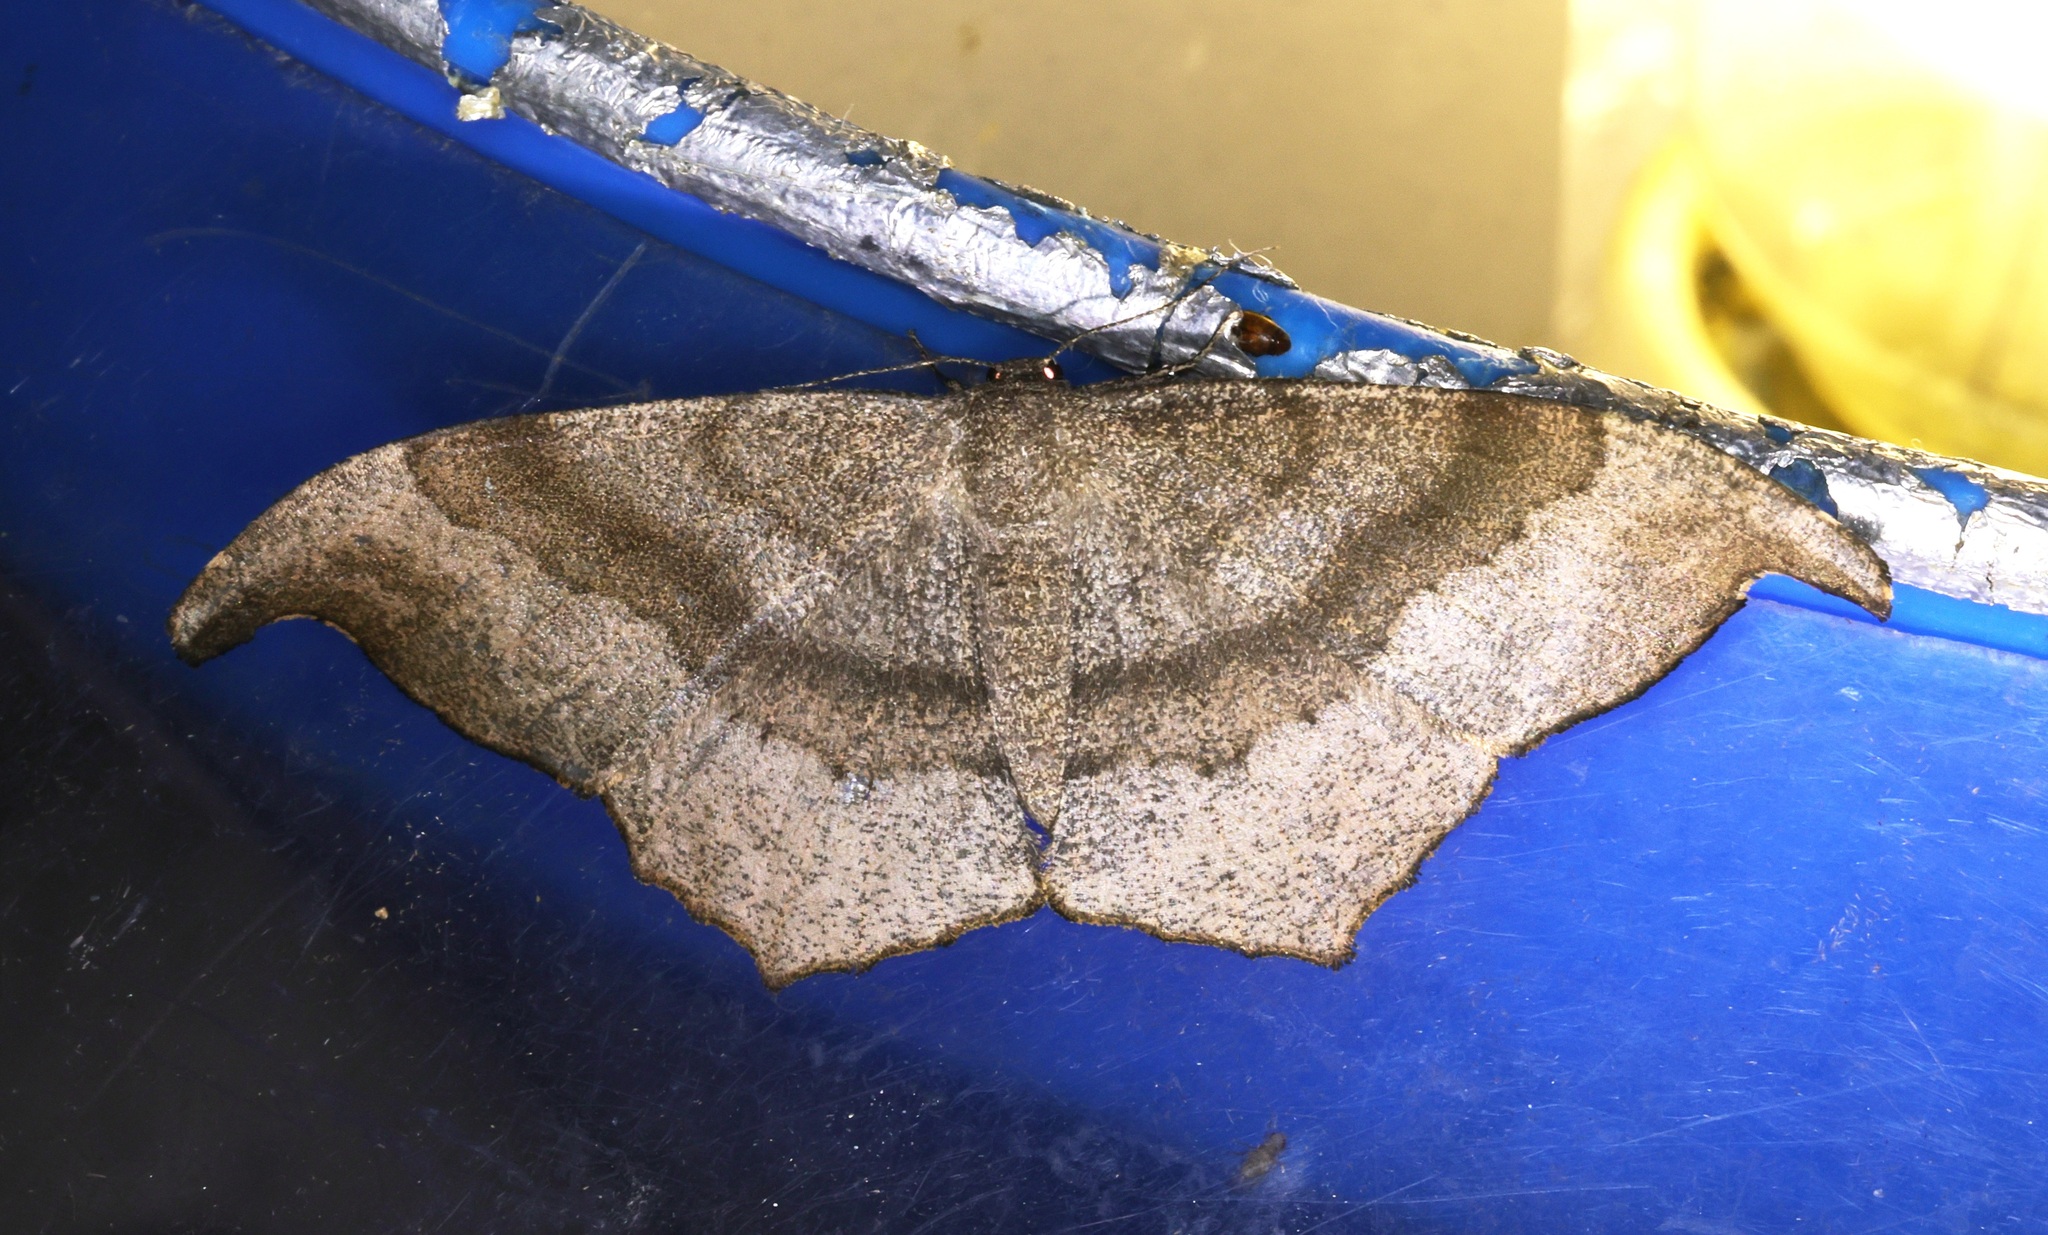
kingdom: Animalia
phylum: Arthropoda
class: Insecta
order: Lepidoptera
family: Geometridae
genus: Hyposidra
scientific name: Hyposidra talaca
